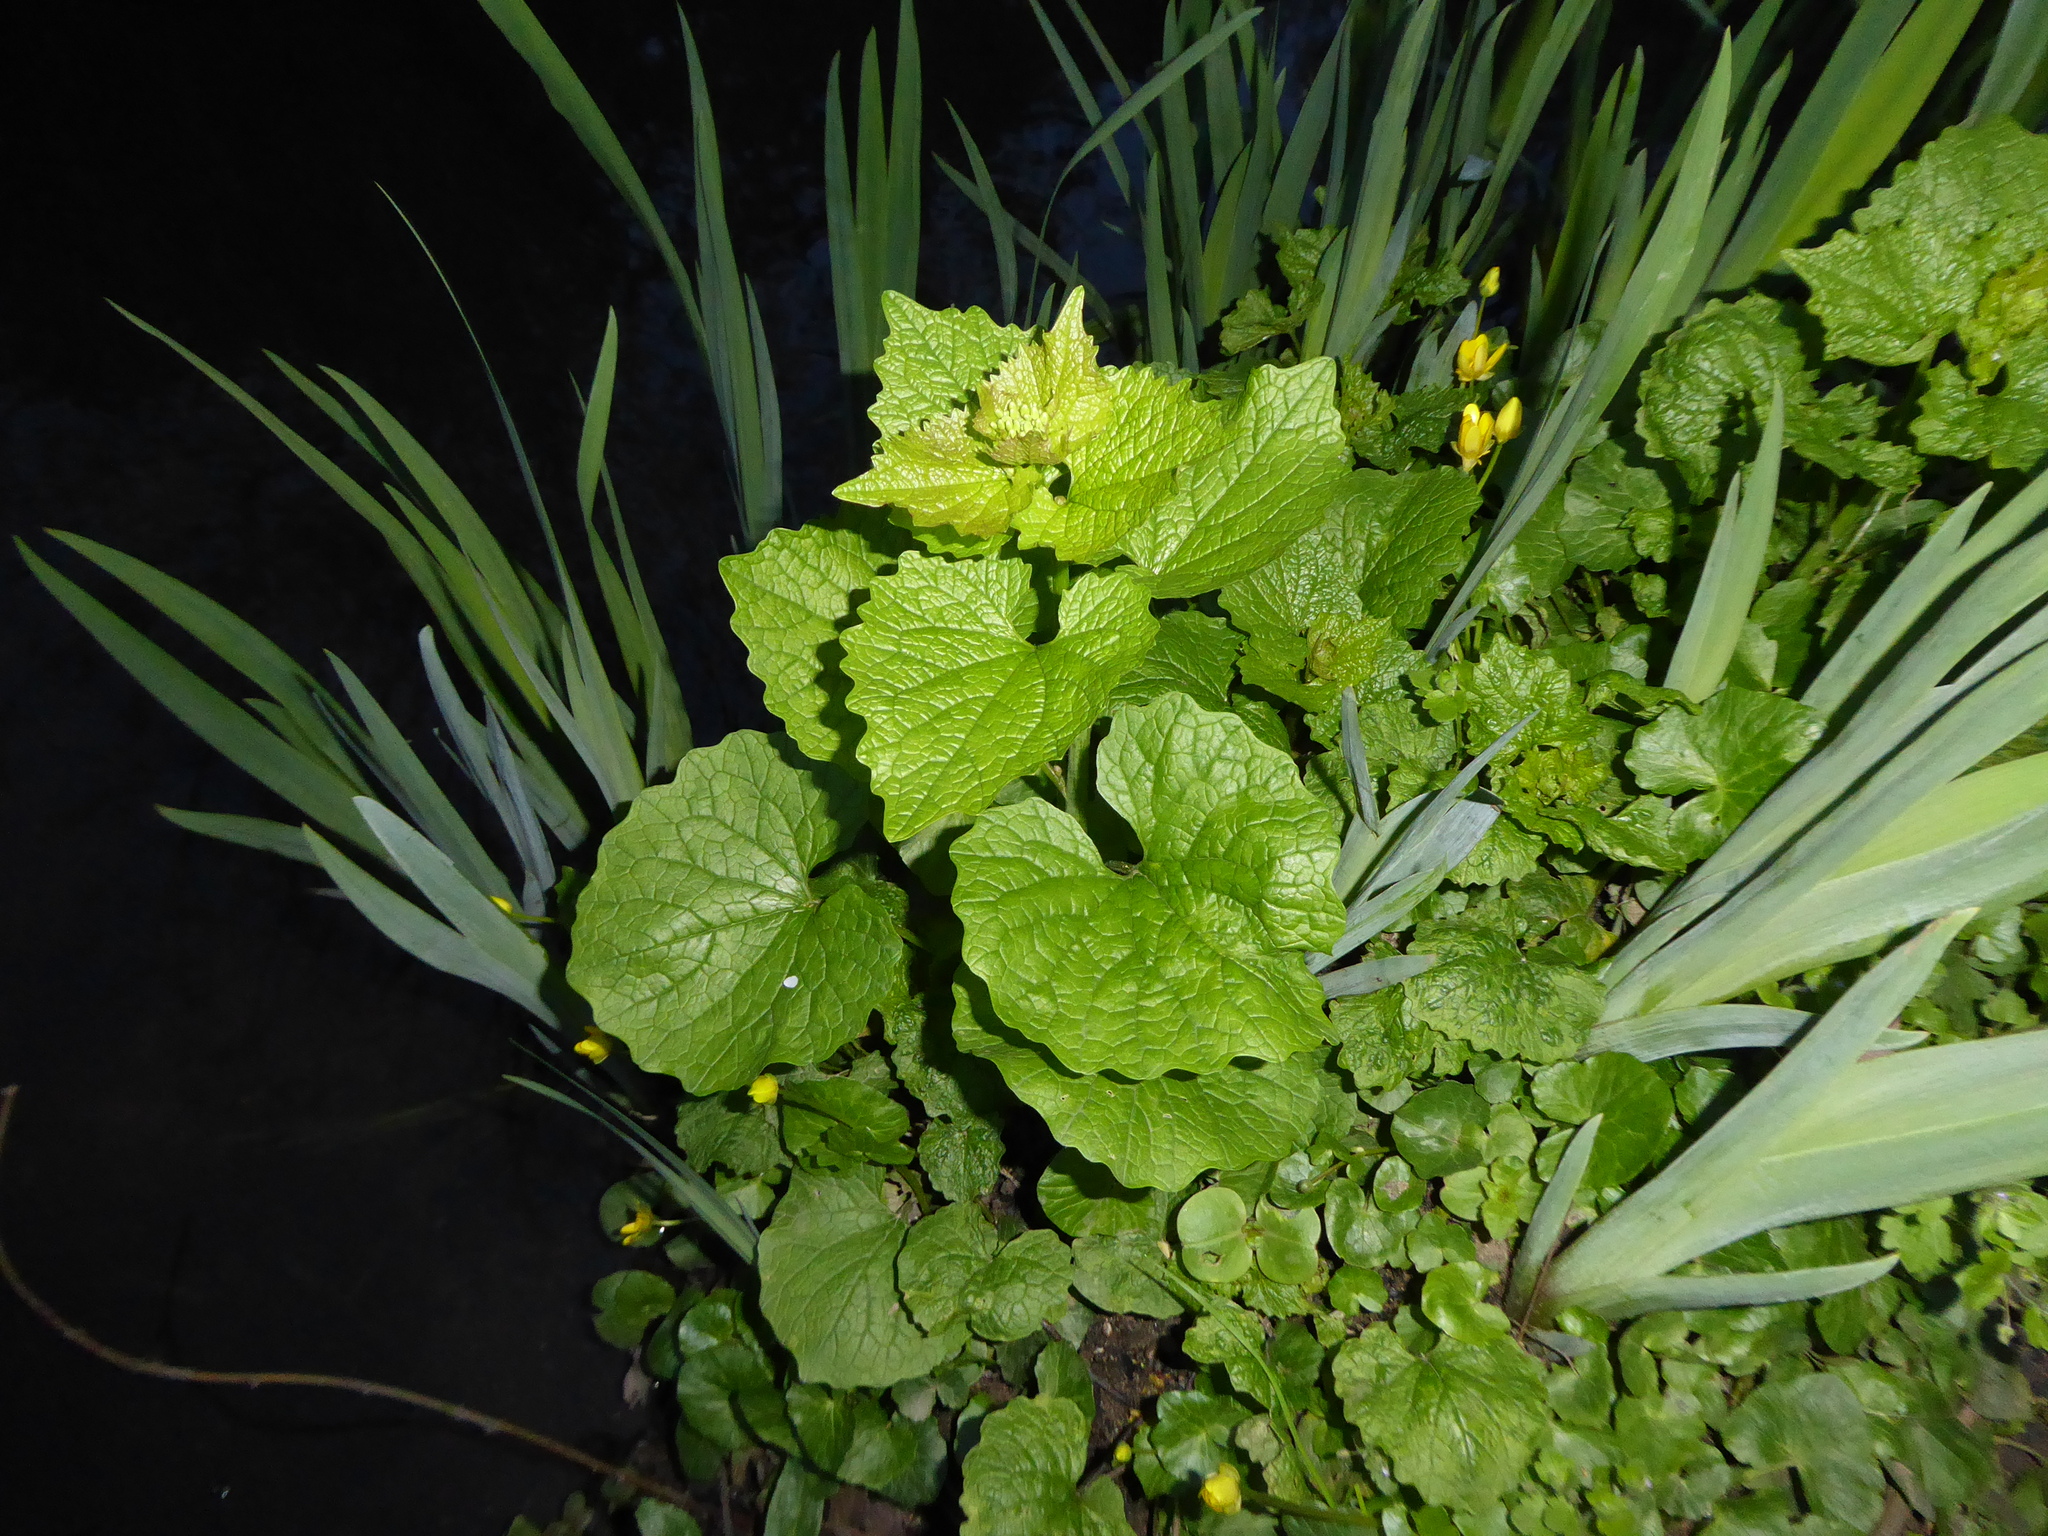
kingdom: Plantae
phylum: Tracheophyta
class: Magnoliopsida
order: Brassicales
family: Brassicaceae
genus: Alliaria
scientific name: Alliaria petiolata
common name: Garlic mustard
